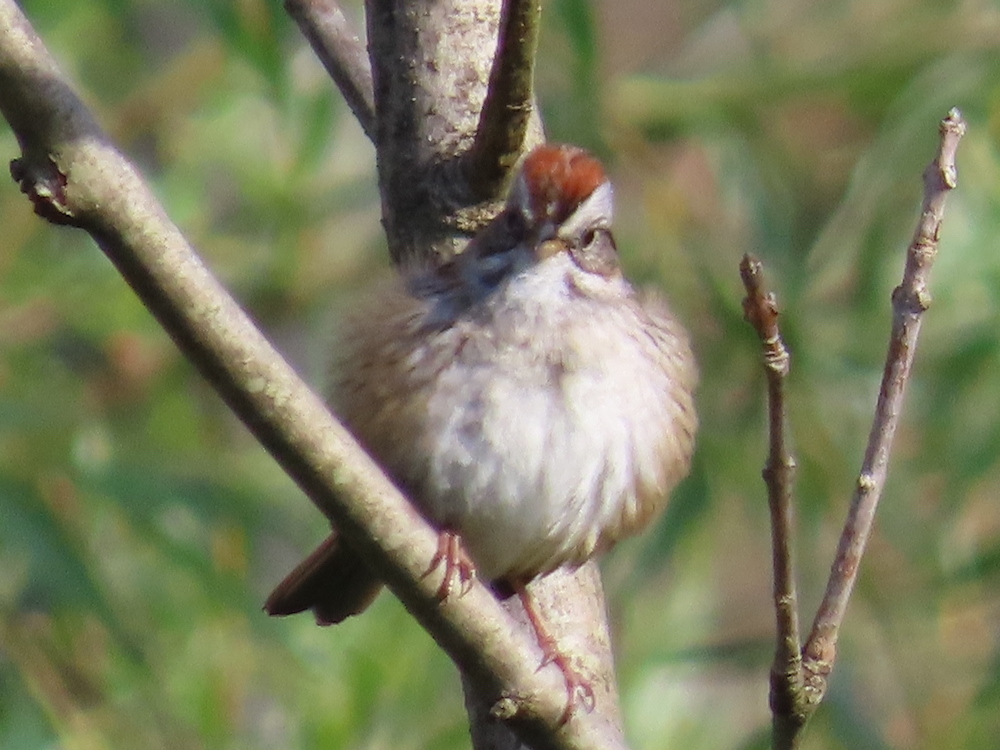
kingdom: Animalia
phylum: Chordata
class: Aves
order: Passeriformes
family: Passerellidae
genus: Melospiza
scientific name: Melospiza georgiana
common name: Swamp sparrow
